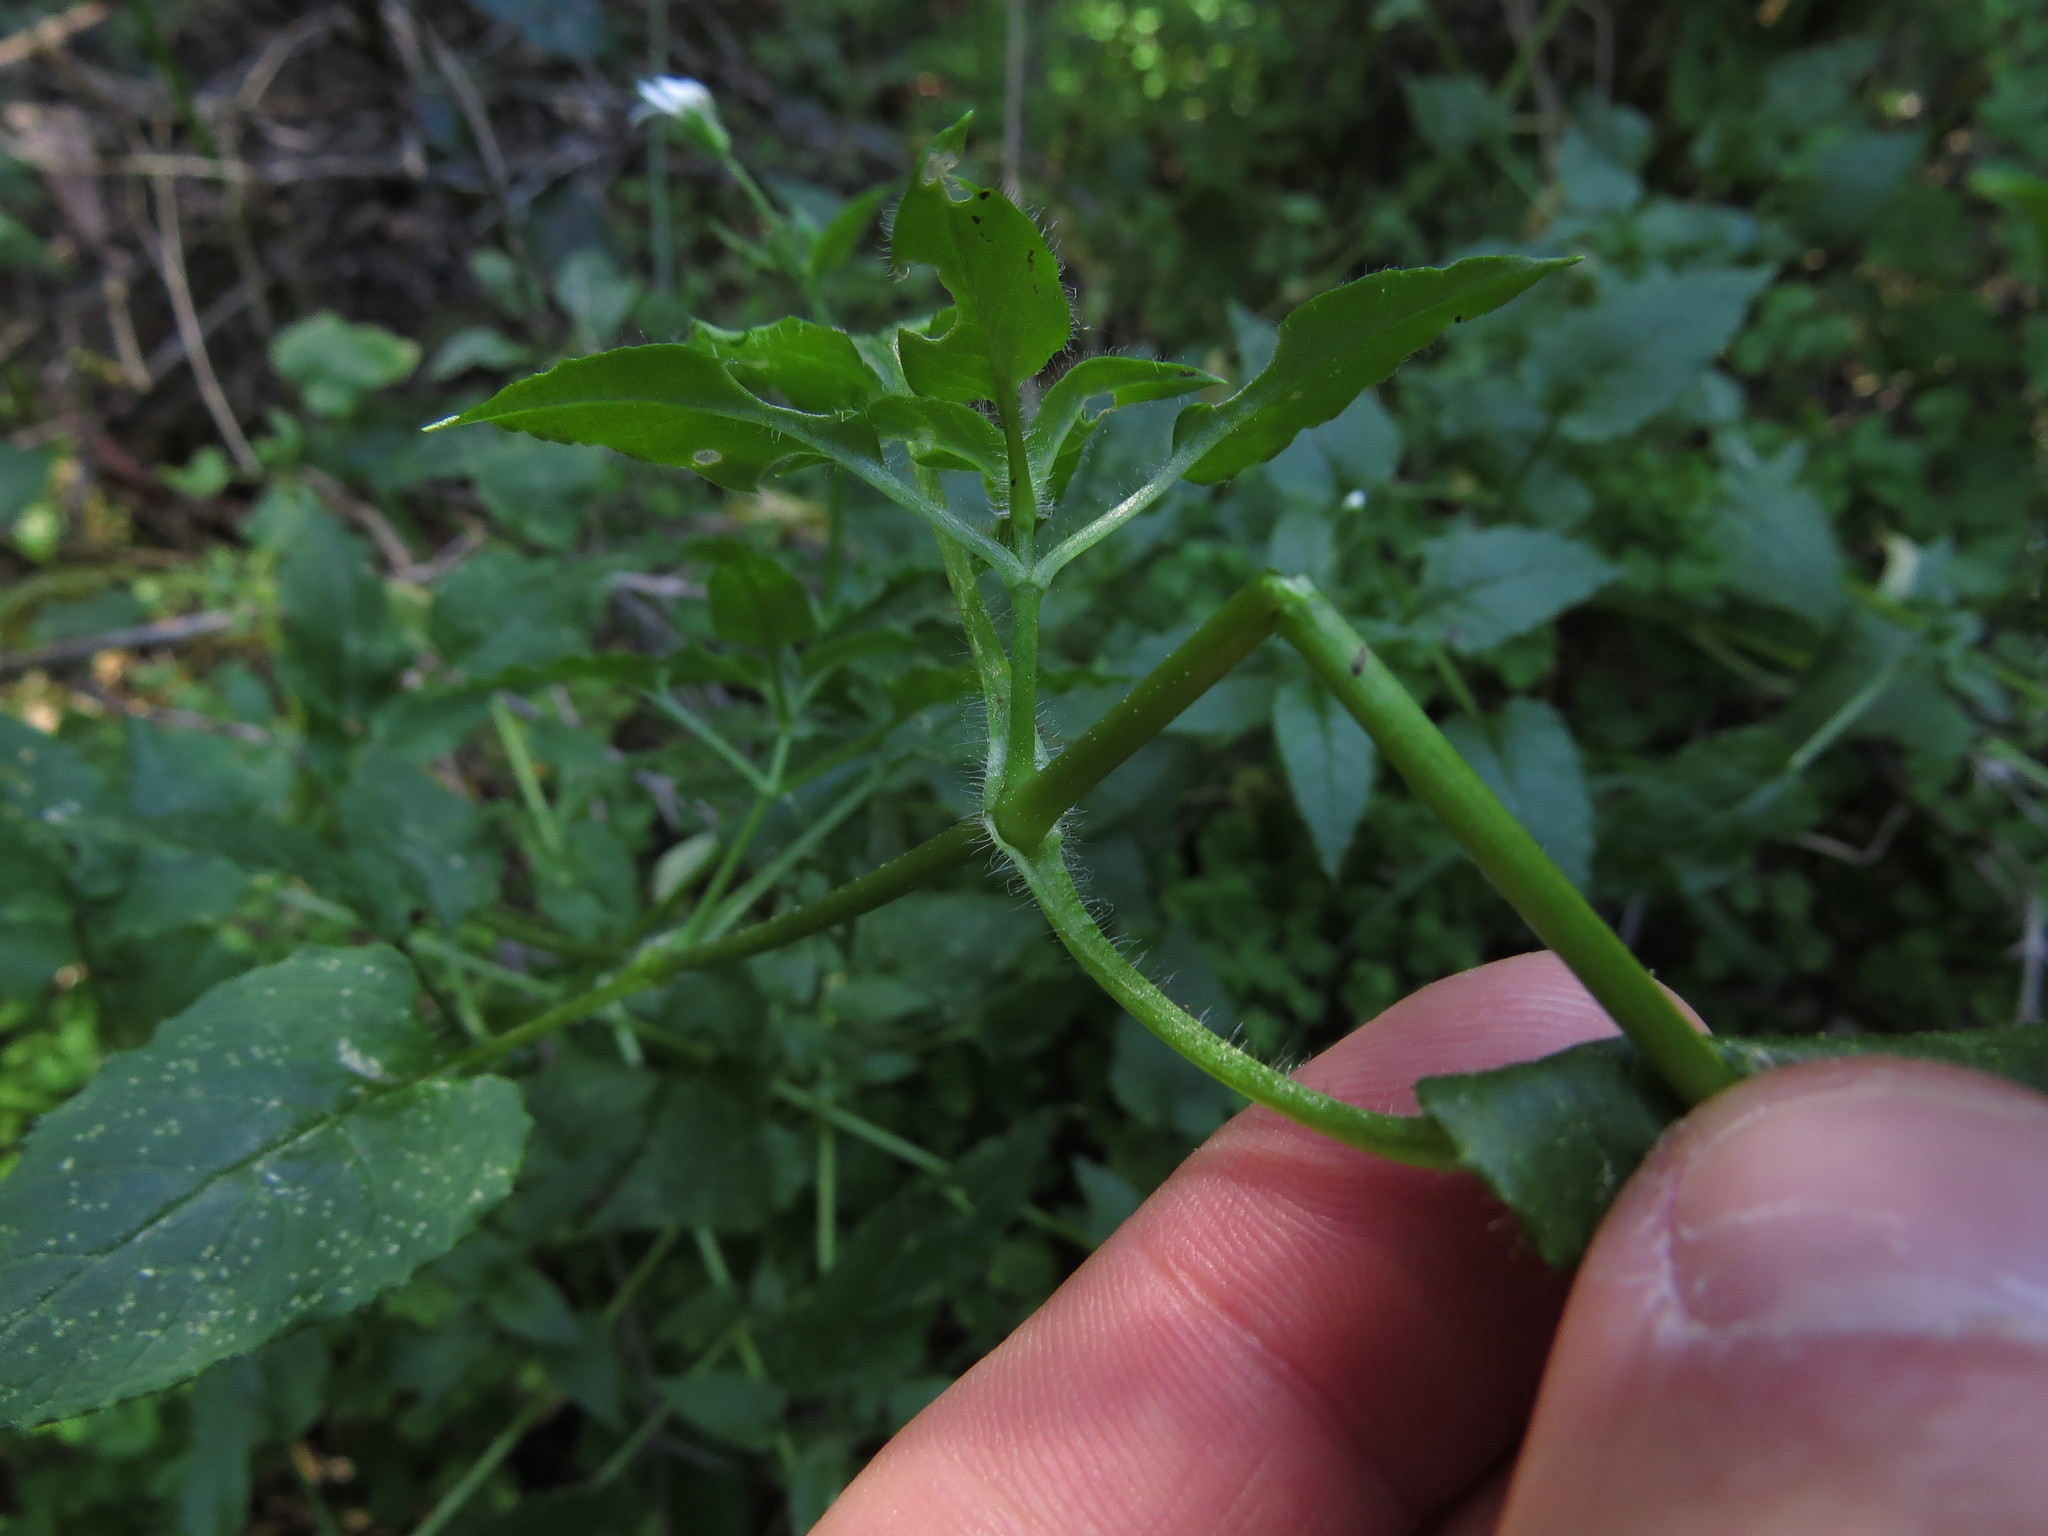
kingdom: Plantae
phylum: Tracheophyta
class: Magnoliopsida
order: Caryophyllales
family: Caryophyllaceae
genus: Stellaria
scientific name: Stellaria chilensis
